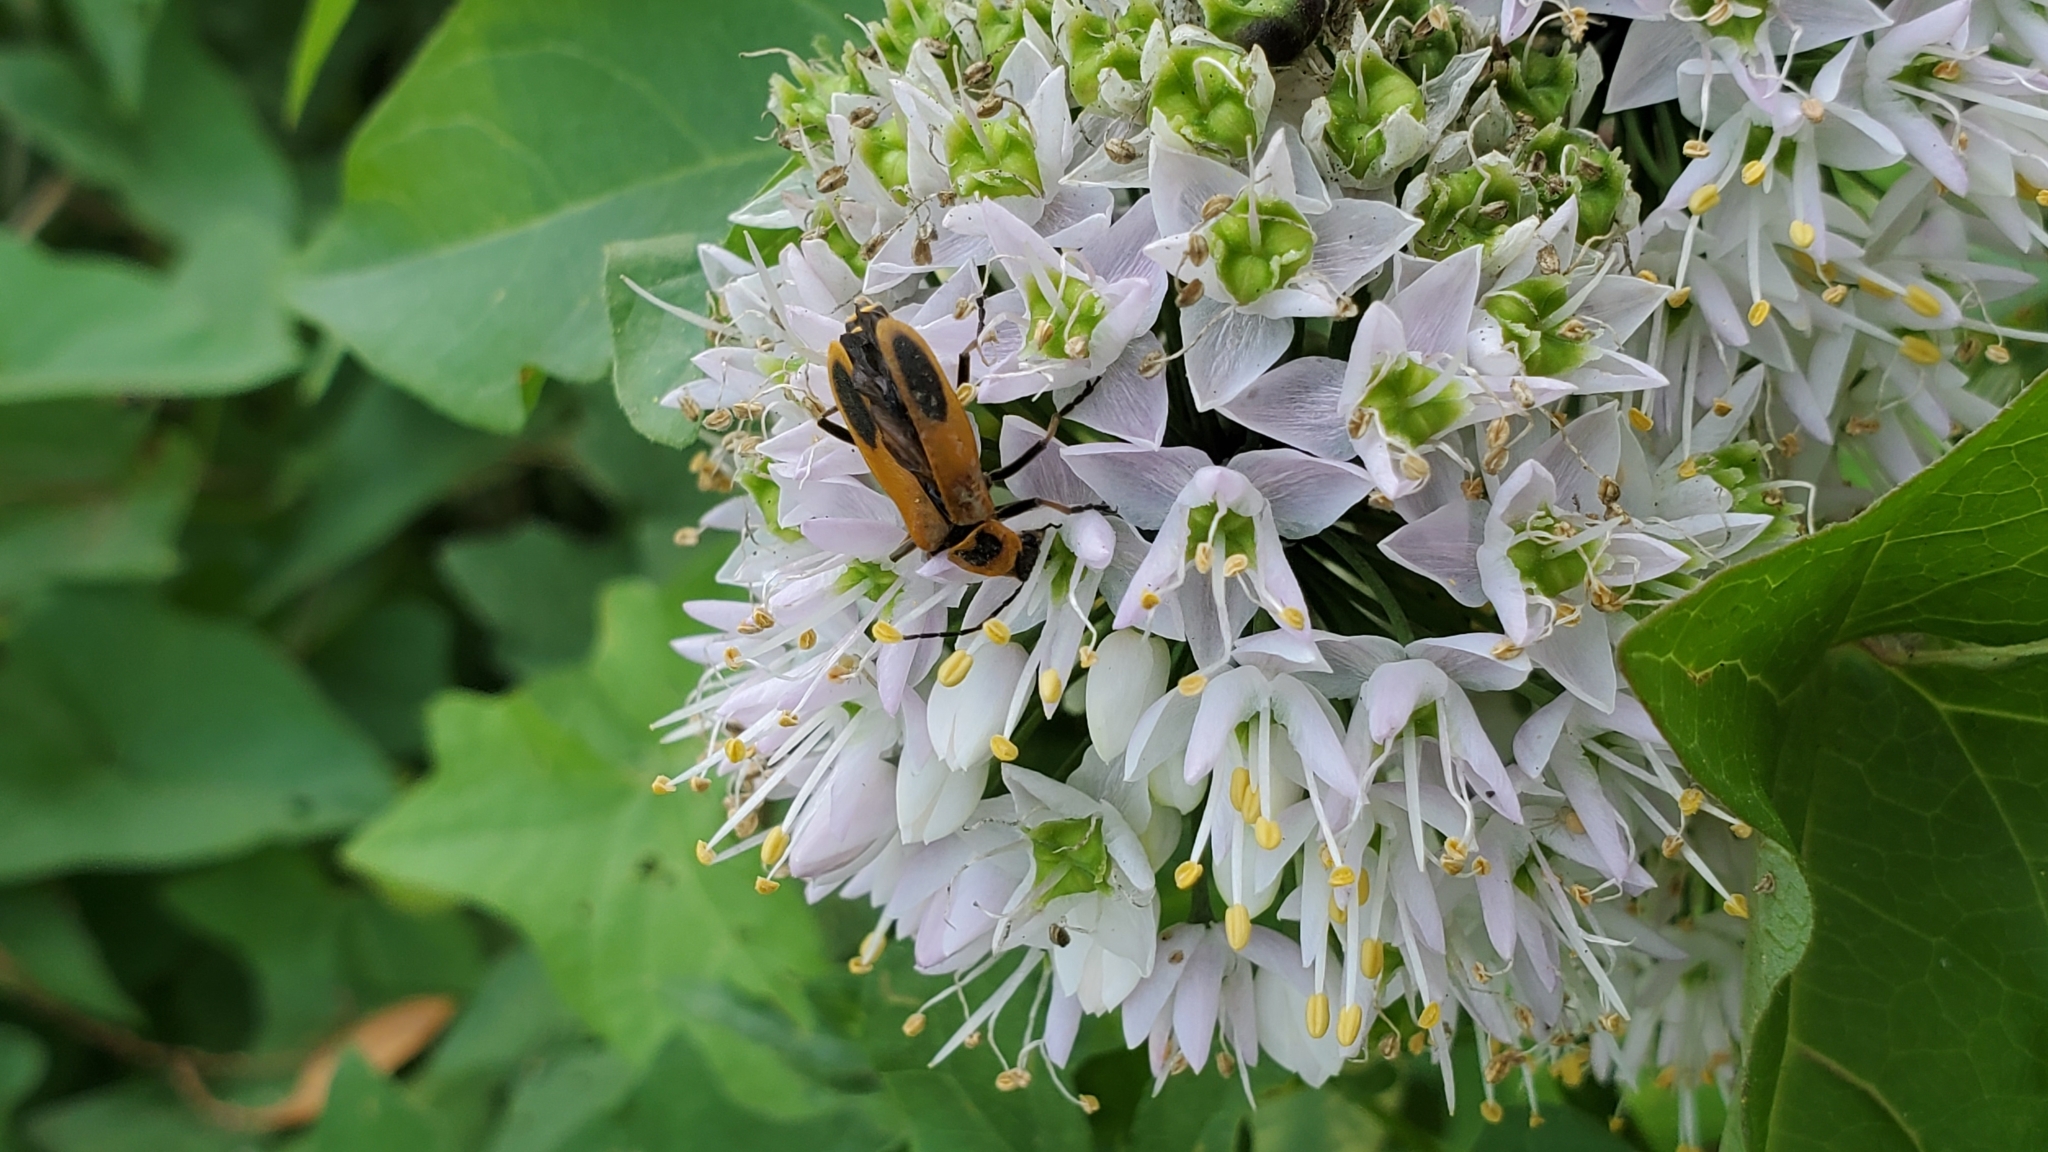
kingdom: Animalia
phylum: Arthropoda
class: Insecta
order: Coleoptera
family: Cantharidae
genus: Chauliognathus
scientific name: Chauliognathus pensylvanicus
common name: Goldenrod soldier beetle
